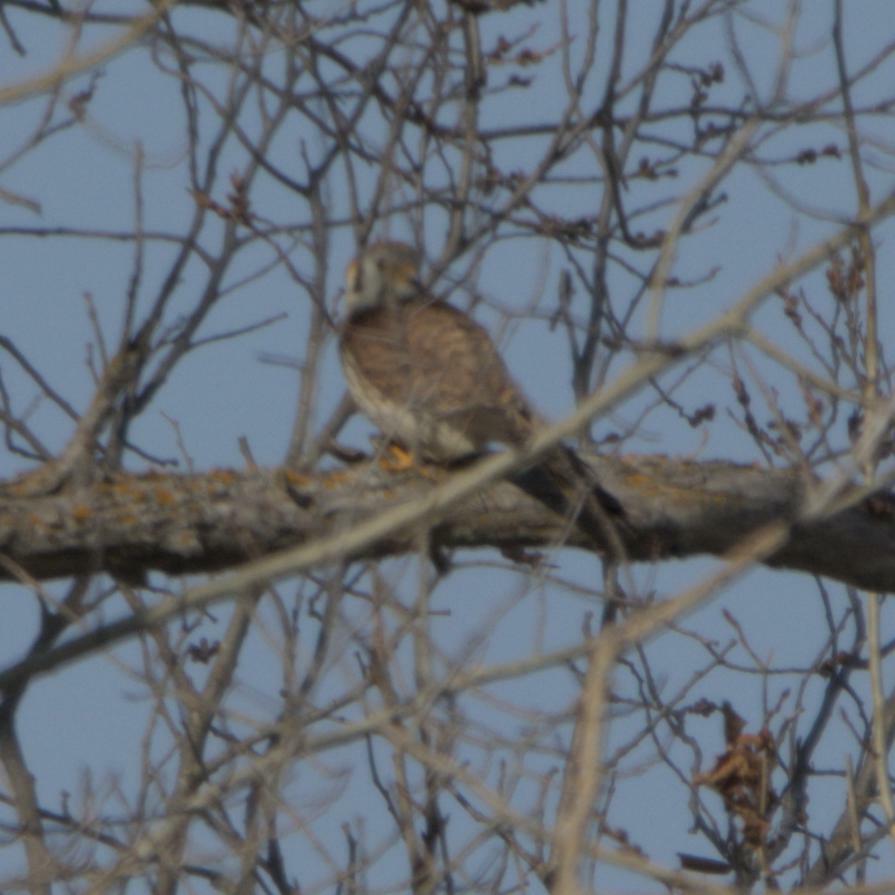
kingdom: Animalia
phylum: Chordata
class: Aves
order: Falconiformes
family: Falconidae
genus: Falco
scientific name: Falco sparverius
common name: American kestrel
